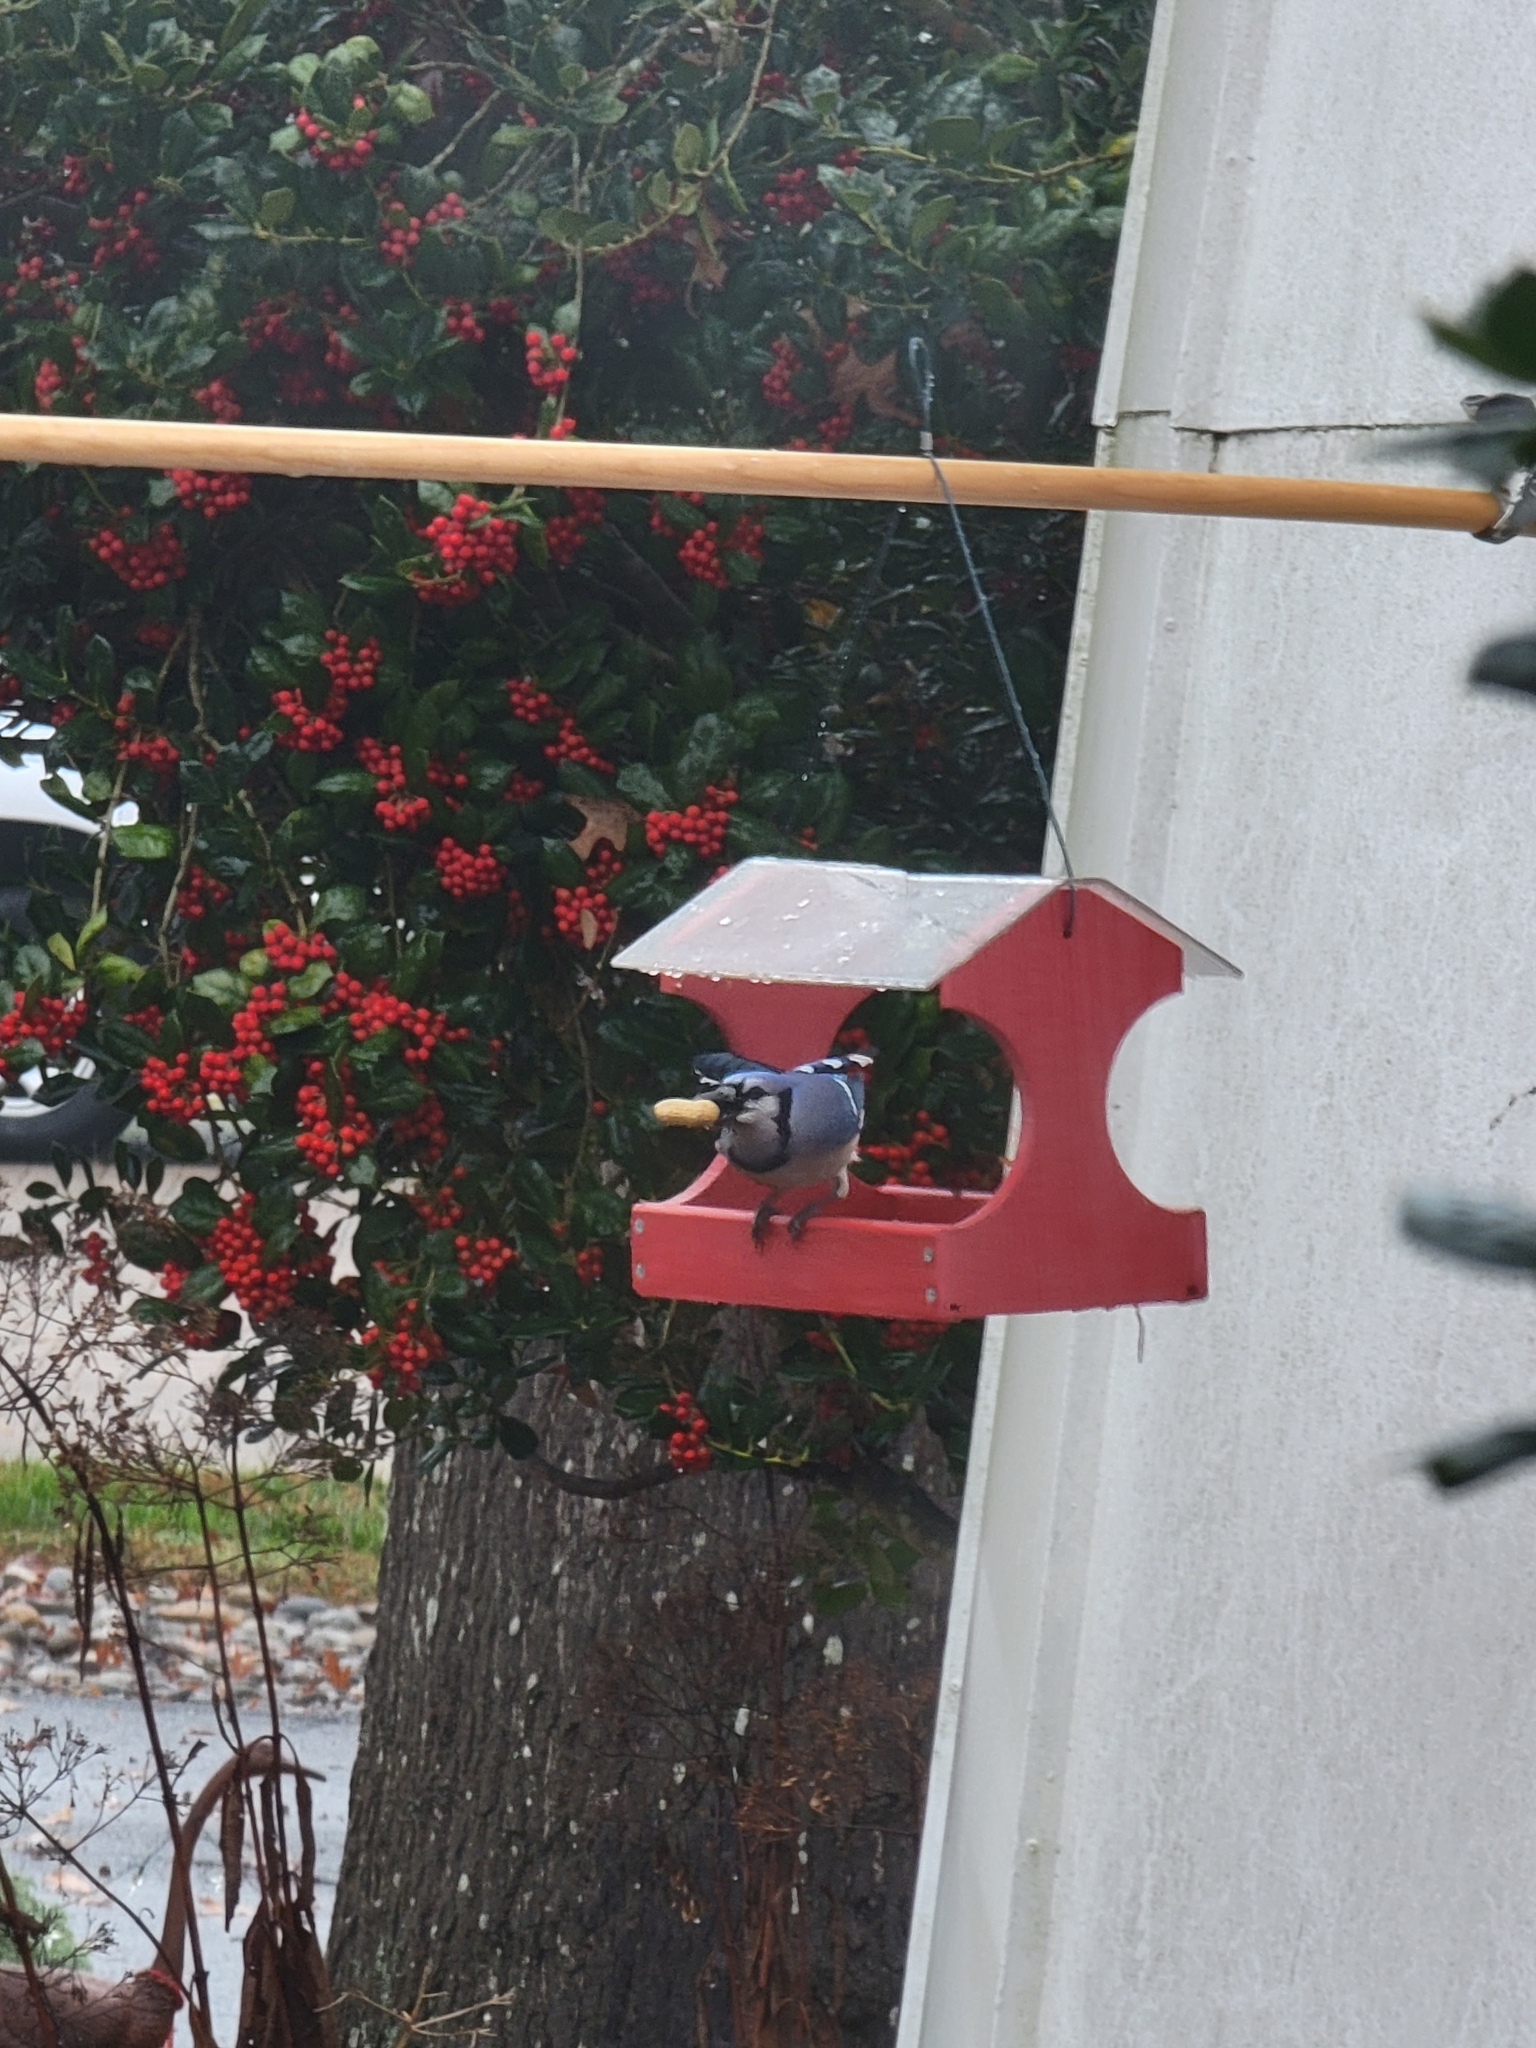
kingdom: Animalia
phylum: Chordata
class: Aves
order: Passeriformes
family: Corvidae
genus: Cyanocitta
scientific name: Cyanocitta cristata
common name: Blue jay
